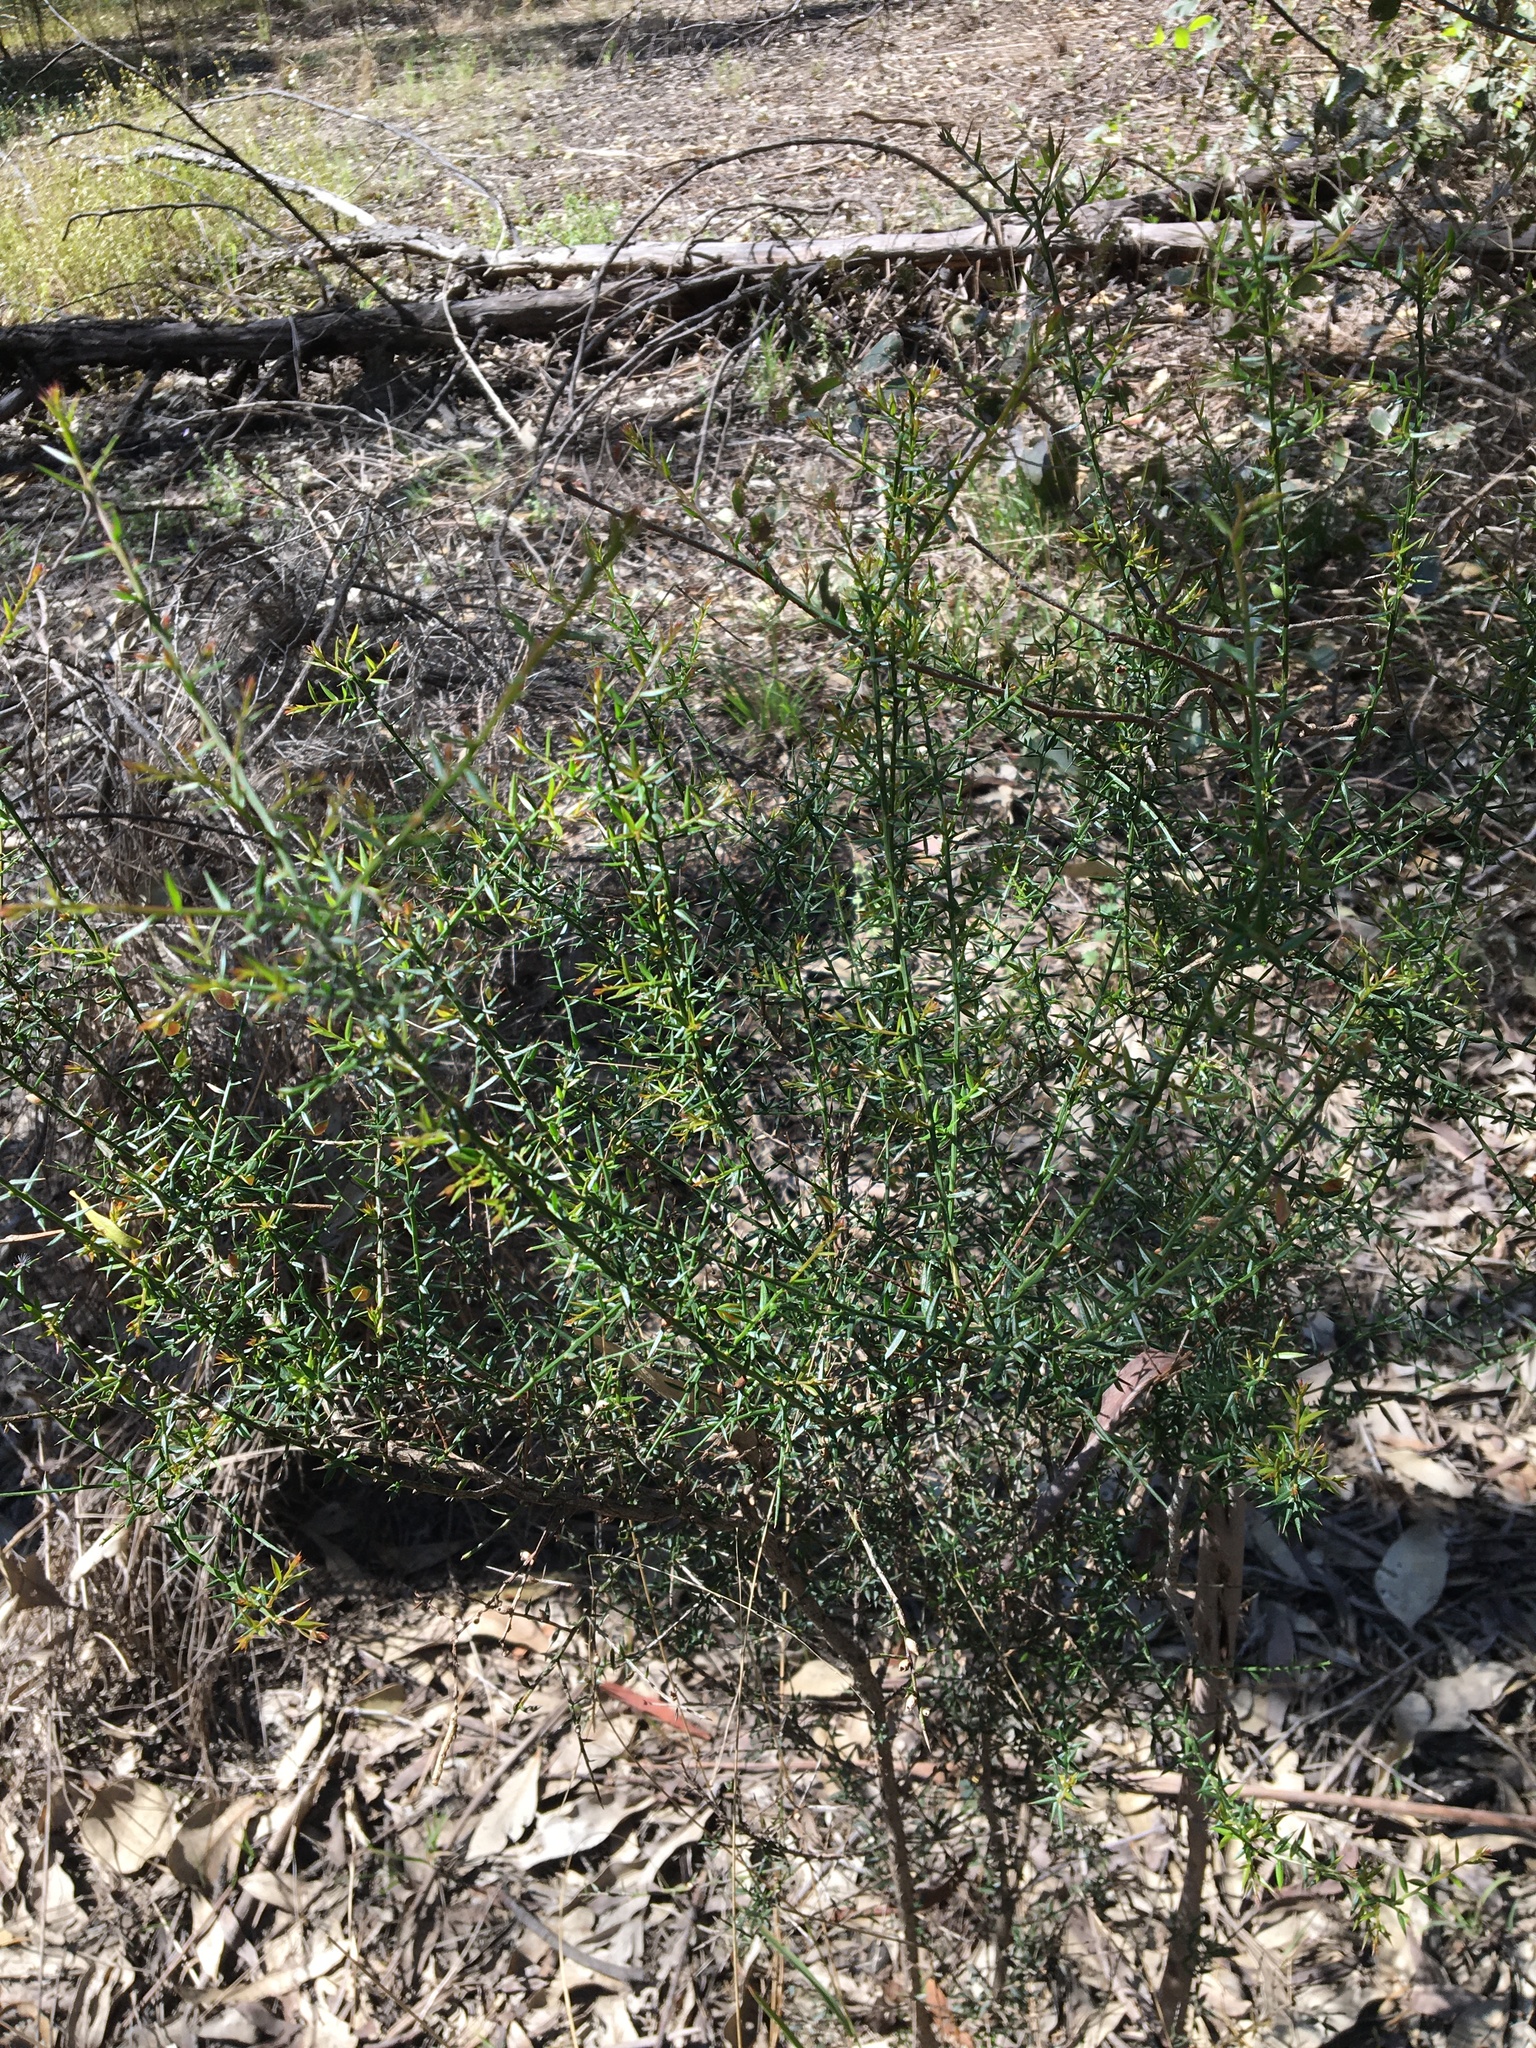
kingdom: Plantae
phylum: Tracheophyta
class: Magnoliopsida
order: Fabales
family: Fabaceae
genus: Daviesia
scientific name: Daviesia ulicifolia
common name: Gorse bitter-pea
